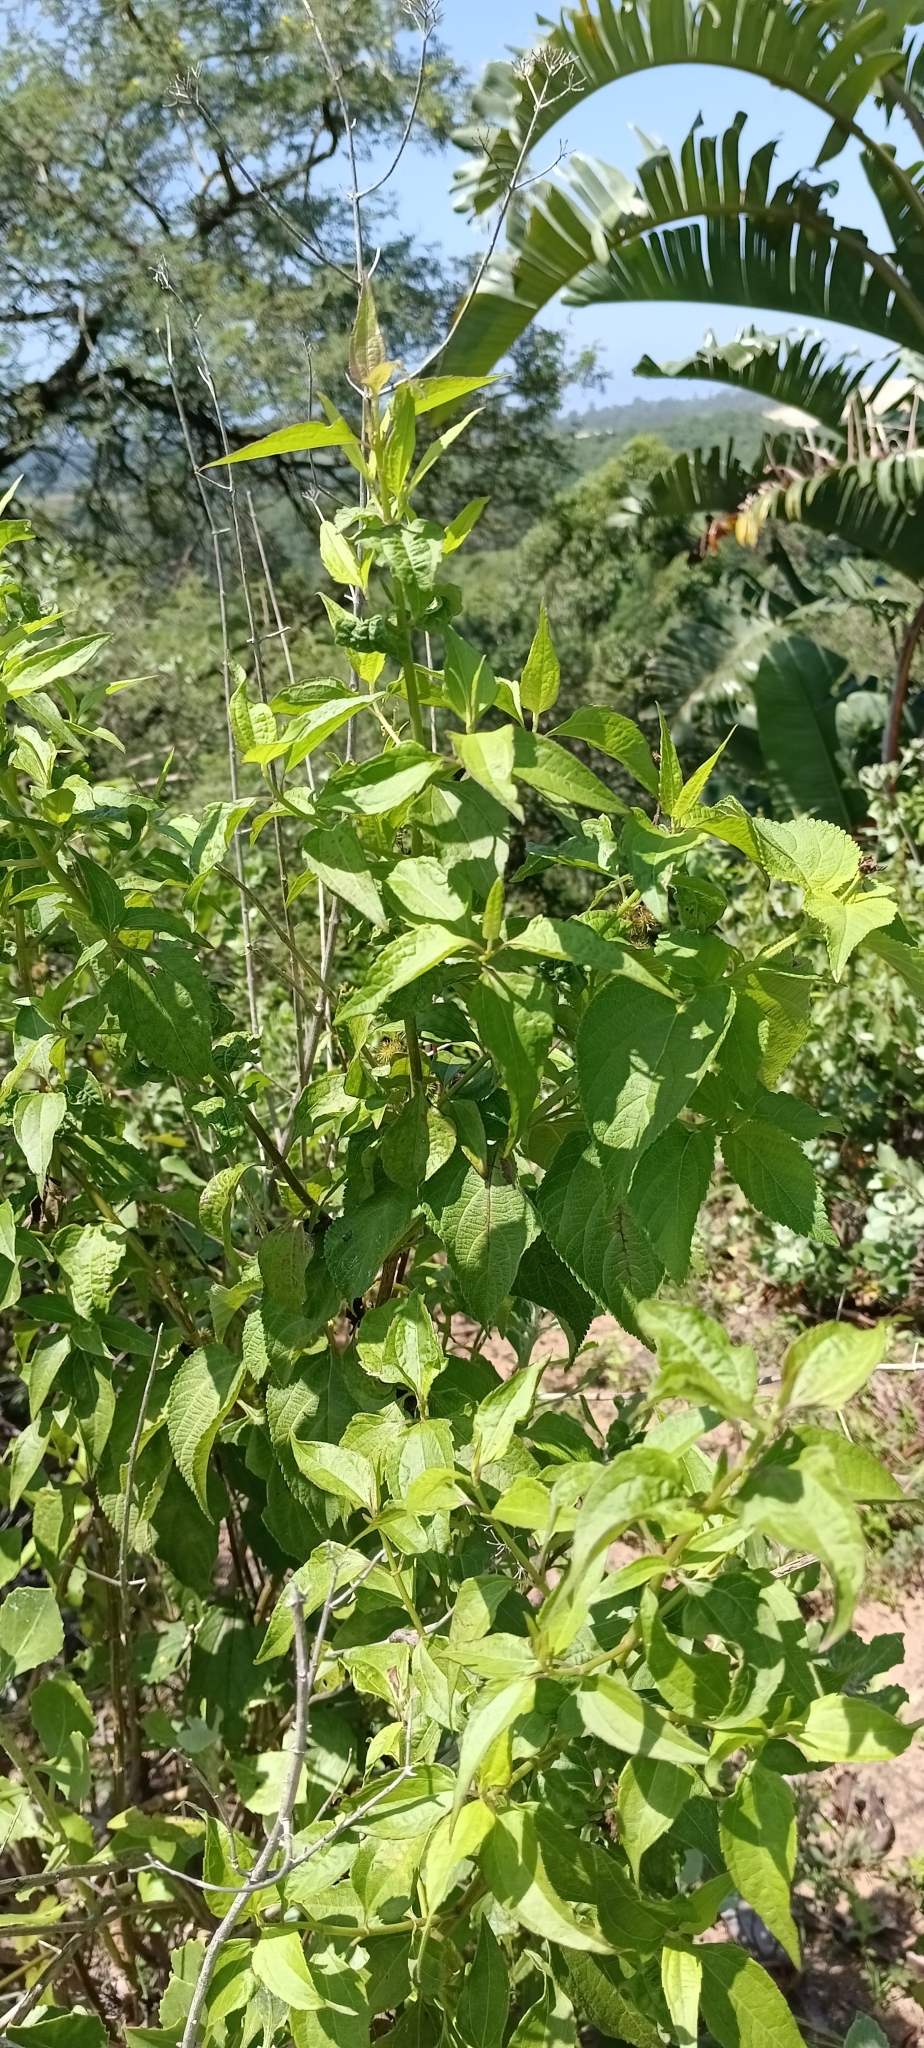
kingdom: Plantae
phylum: Tracheophyta
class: Magnoliopsida
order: Asterales
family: Asteraceae
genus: Chromolaena
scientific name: Chromolaena odorata
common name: Siamweed
